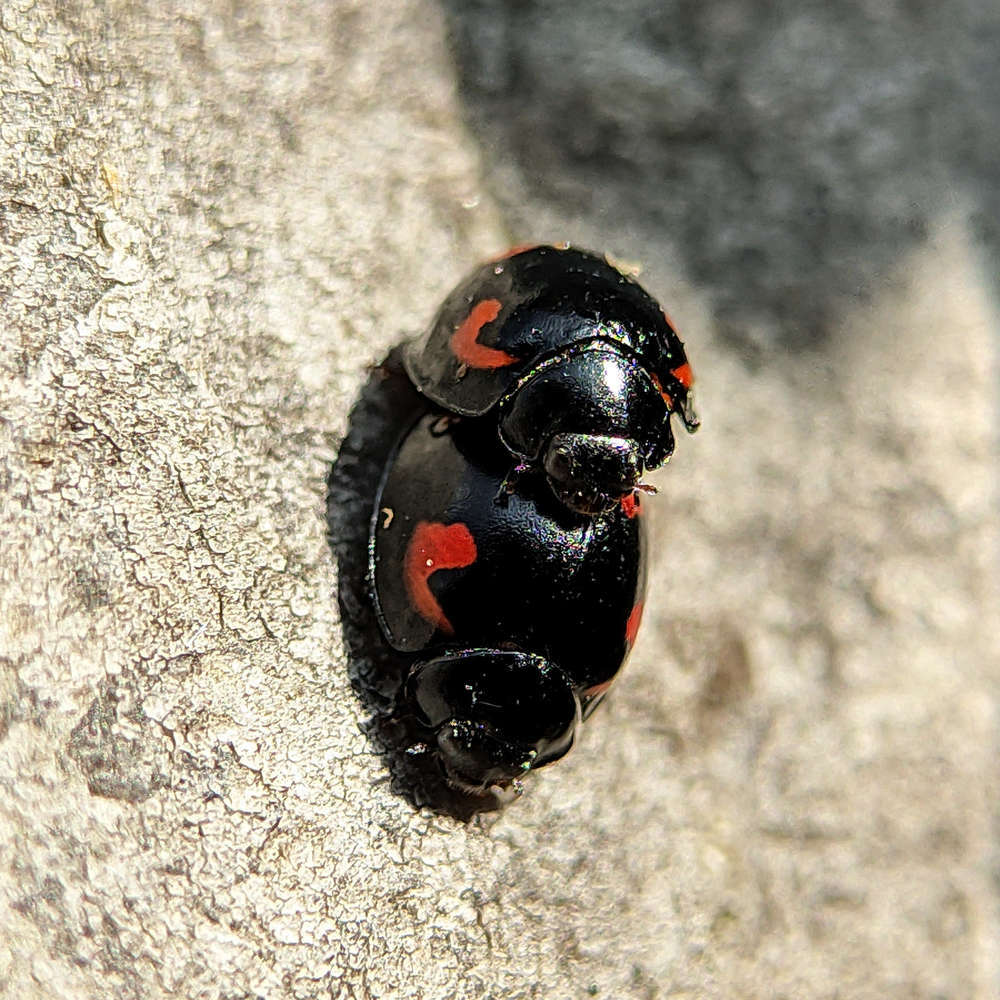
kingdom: Animalia
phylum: Arthropoda
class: Insecta
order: Coleoptera
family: Coccinellidae
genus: Brumus
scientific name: Brumus quadripustulatus
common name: Ladybird beetle
